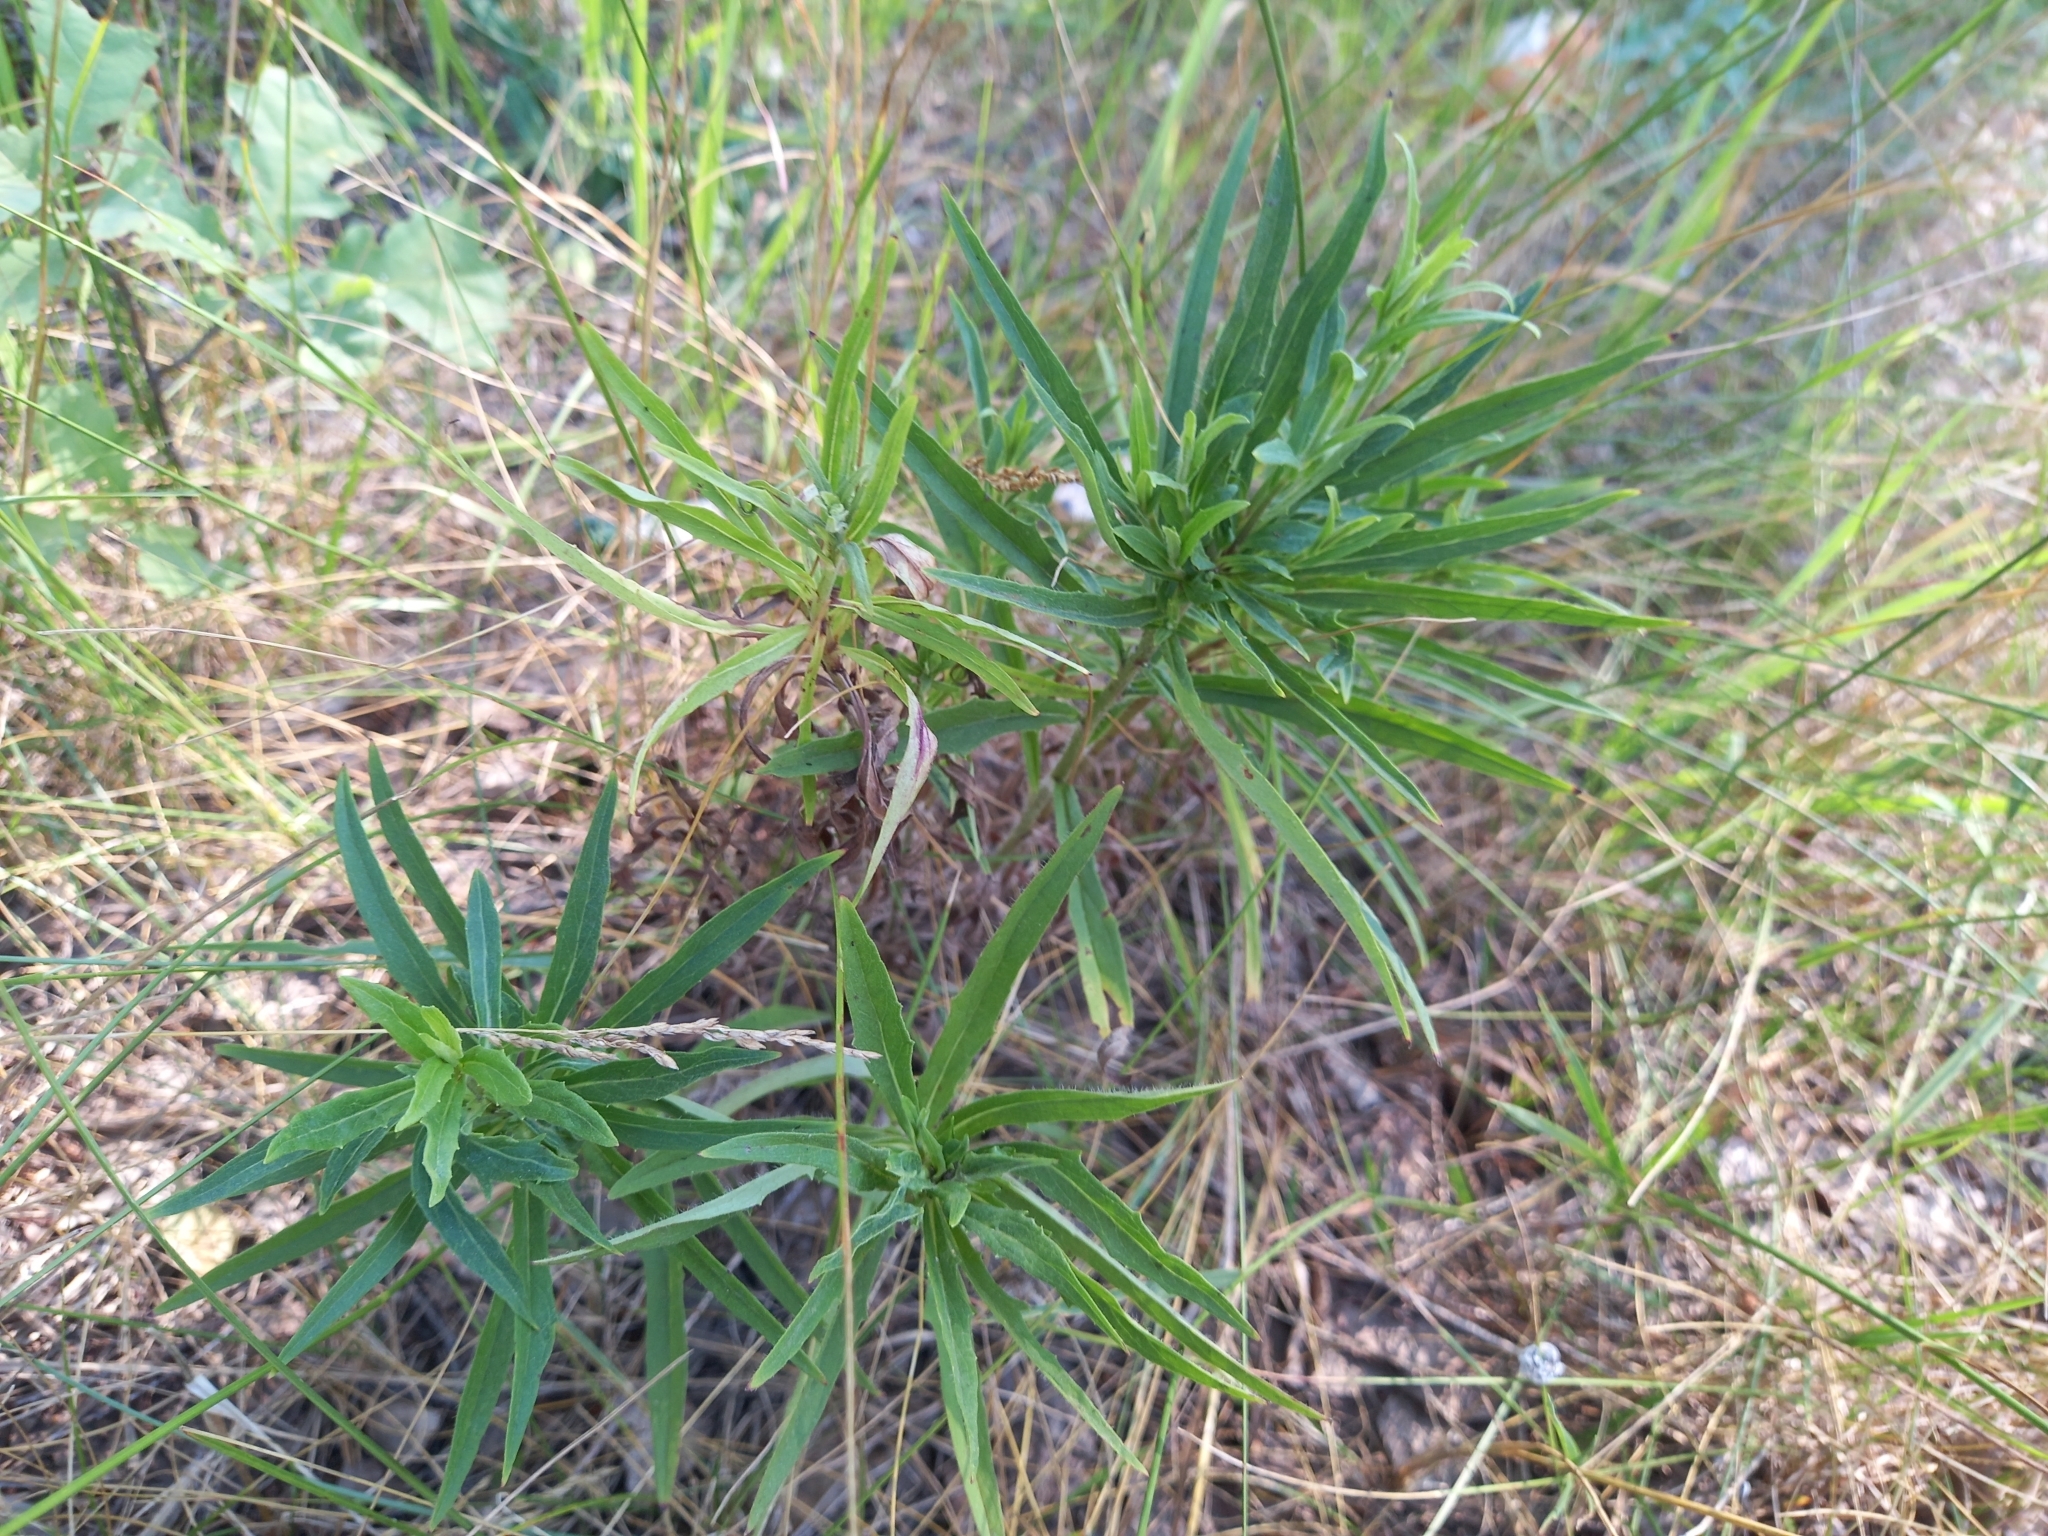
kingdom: Plantae
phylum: Tracheophyta
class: Magnoliopsida
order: Asterales
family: Asteraceae
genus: Hieracium
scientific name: Hieracium umbellatum
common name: Northern hawkweed
